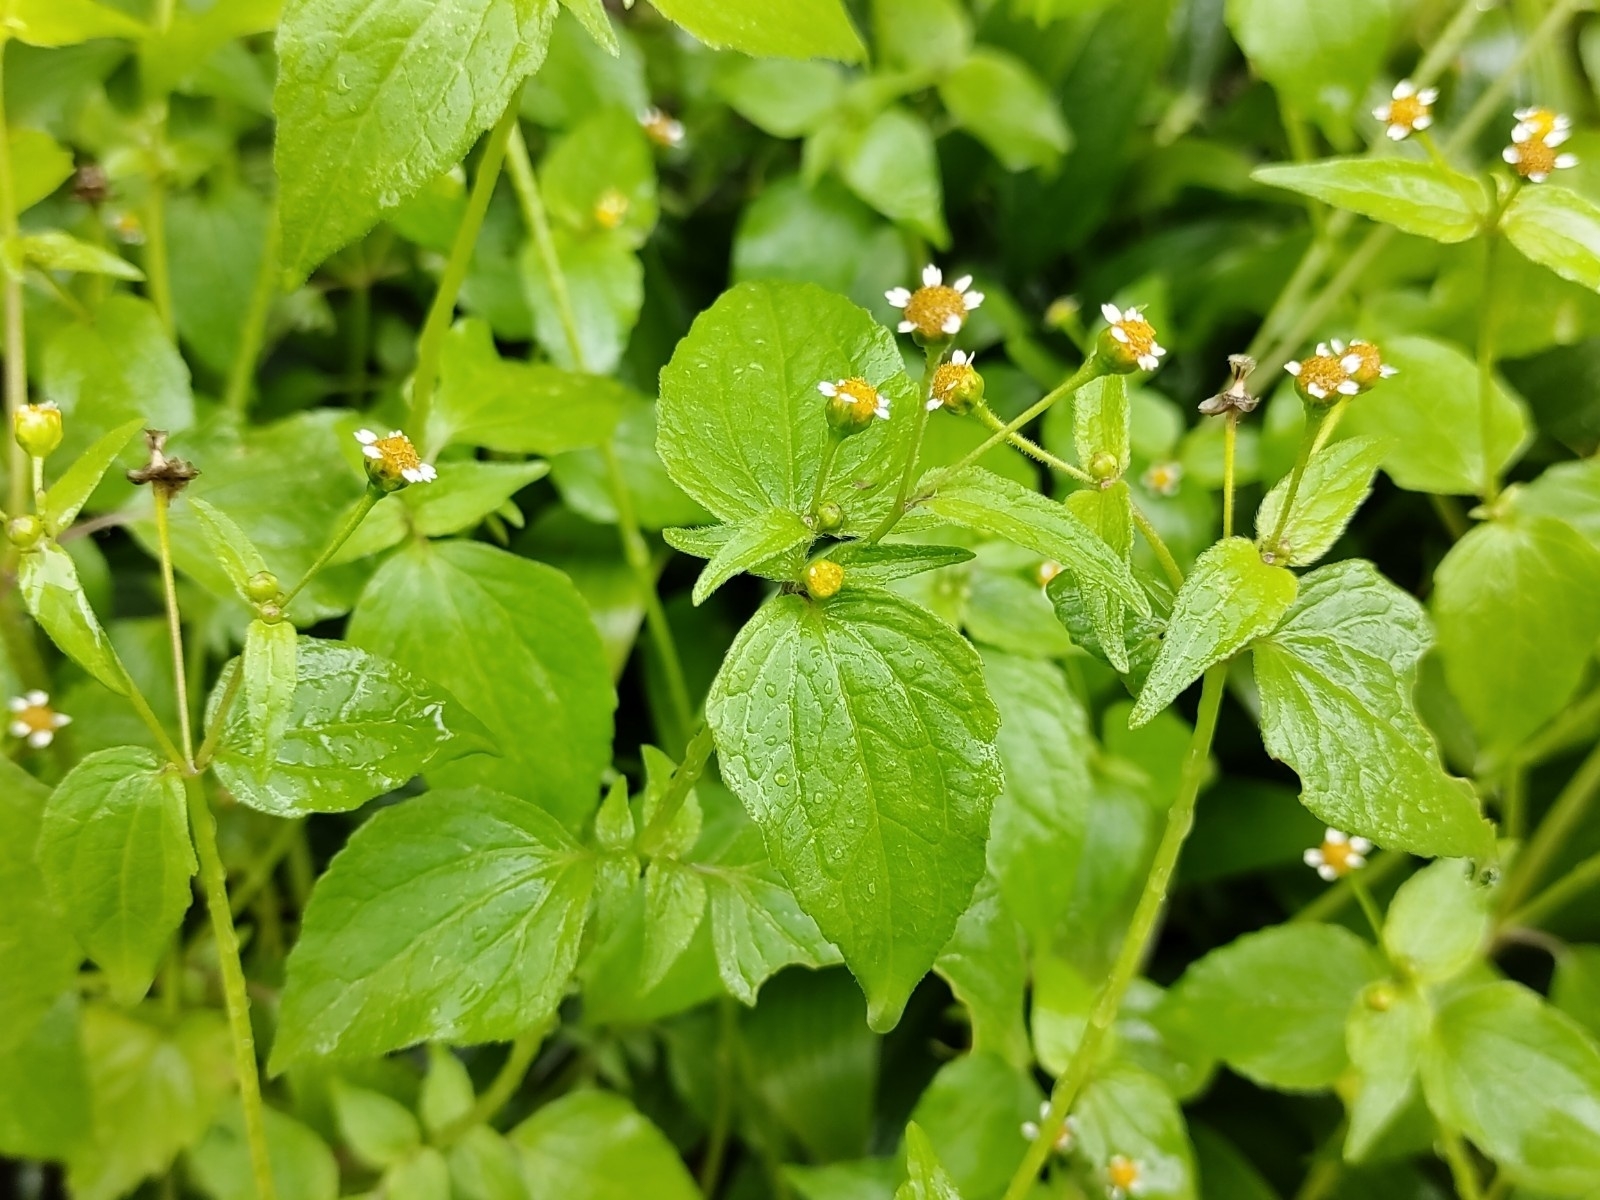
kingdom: Plantae
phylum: Tracheophyta
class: Magnoliopsida
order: Asterales
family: Asteraceae
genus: Galinsoga
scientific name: Galinsoga quadriradiata
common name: Shaggy soldier
